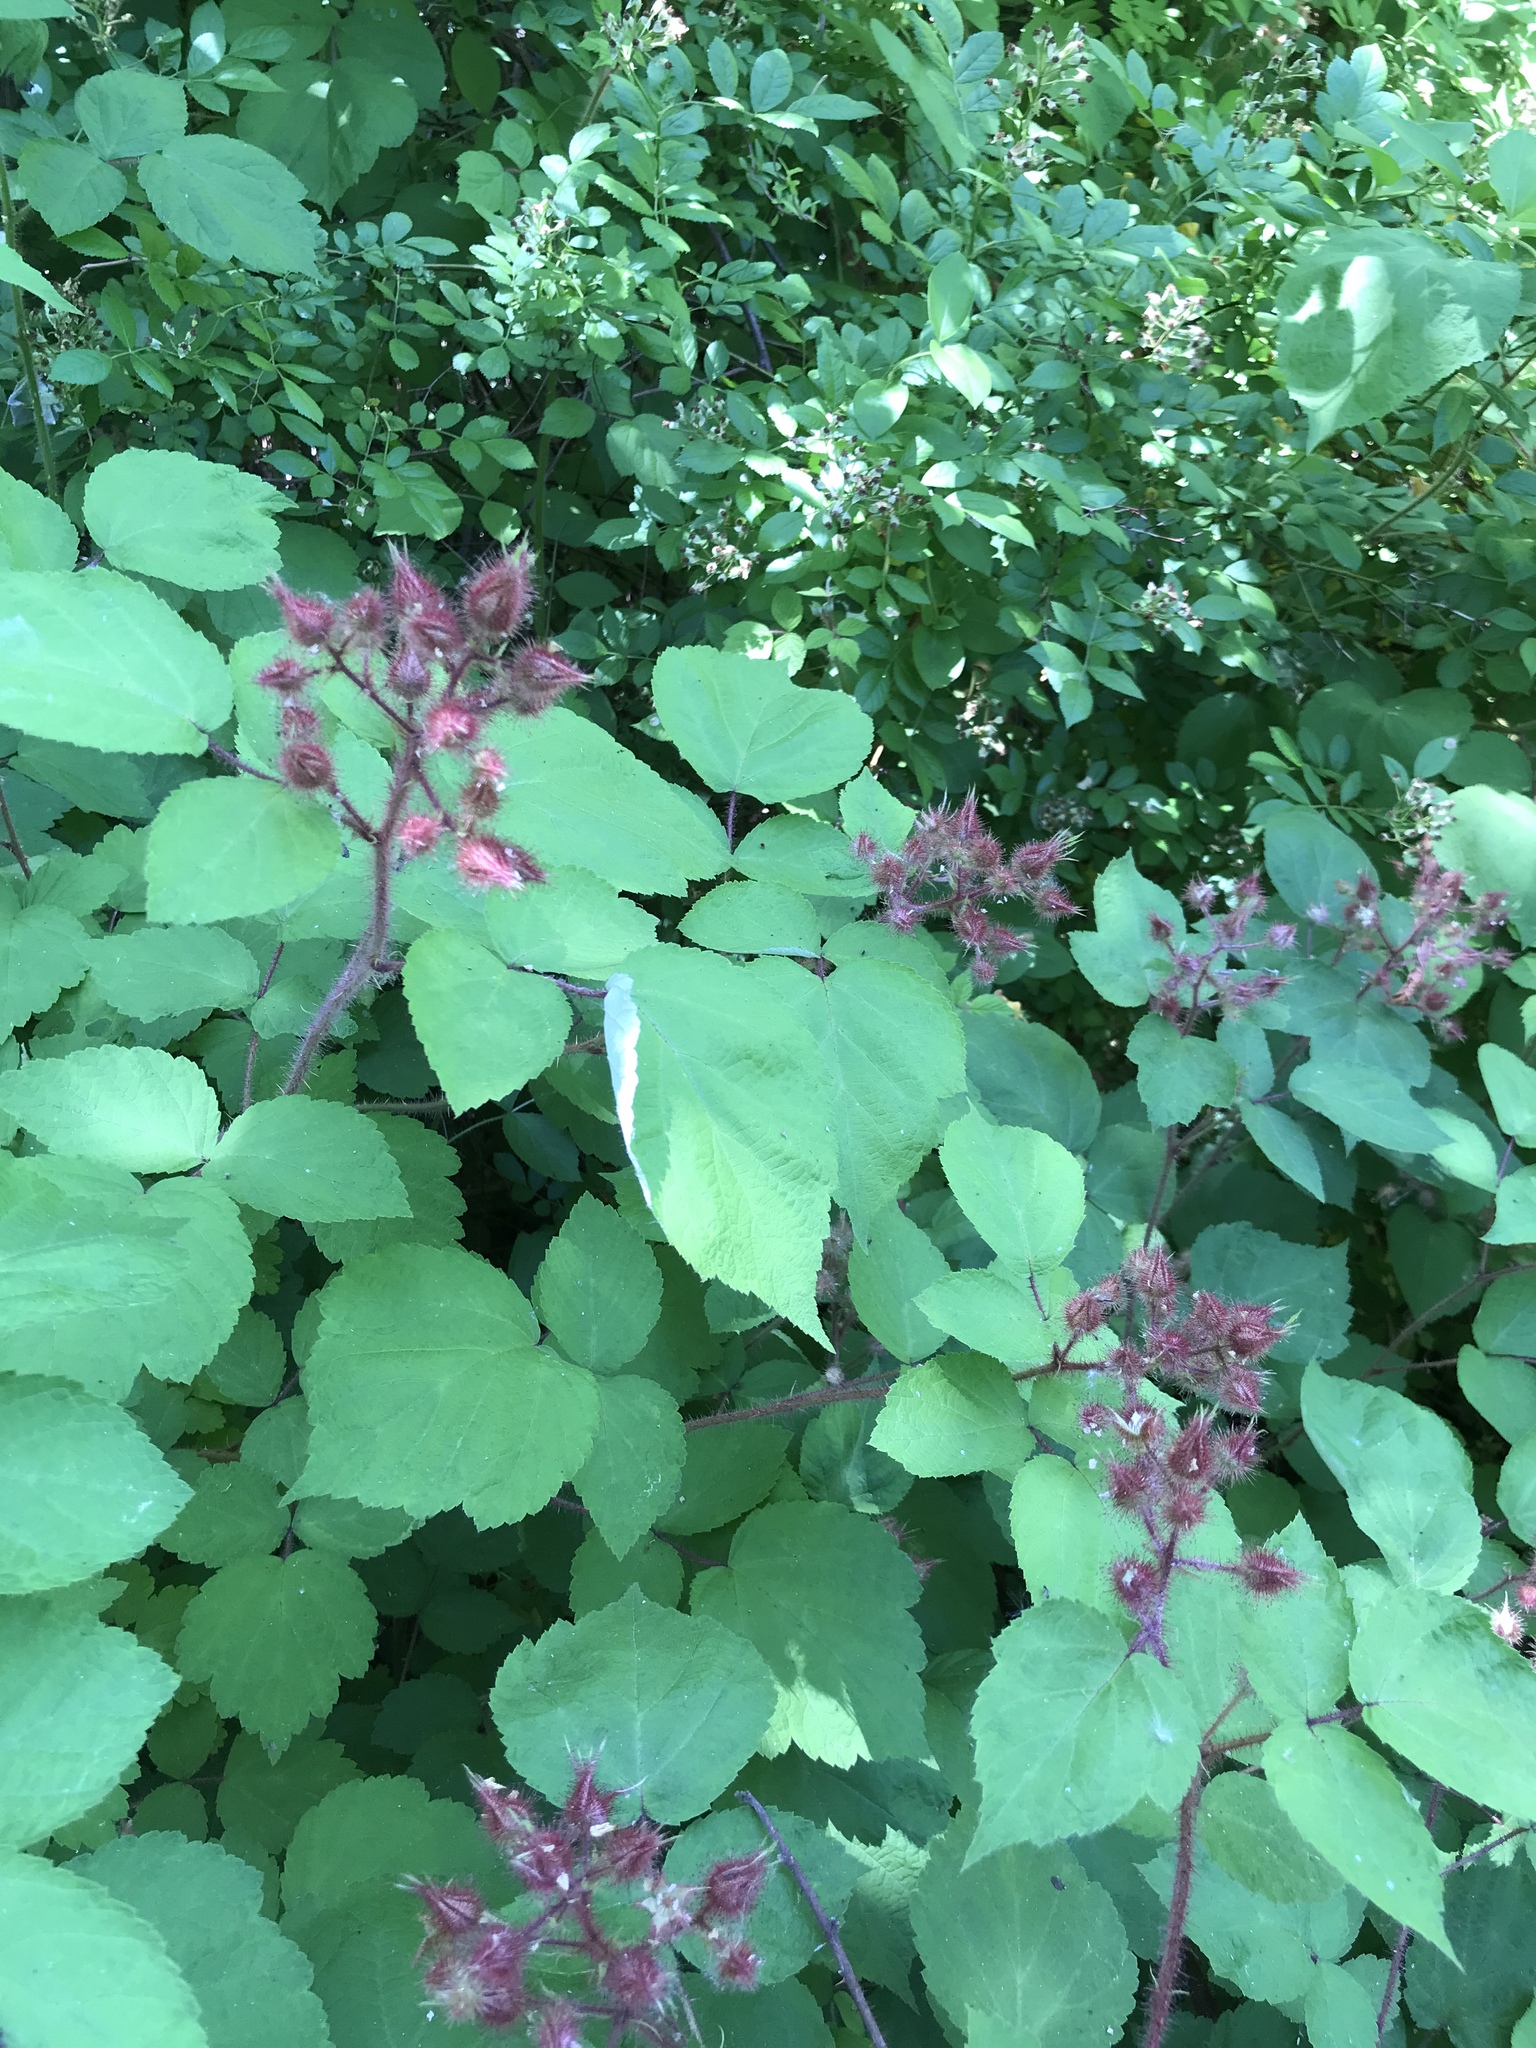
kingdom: Plantae
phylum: Tracheophyta
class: Magnoliopsida
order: Rosales
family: Rosaceae
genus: Rubus
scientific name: Rubus phoenicolasius
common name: Japanese wineberry
